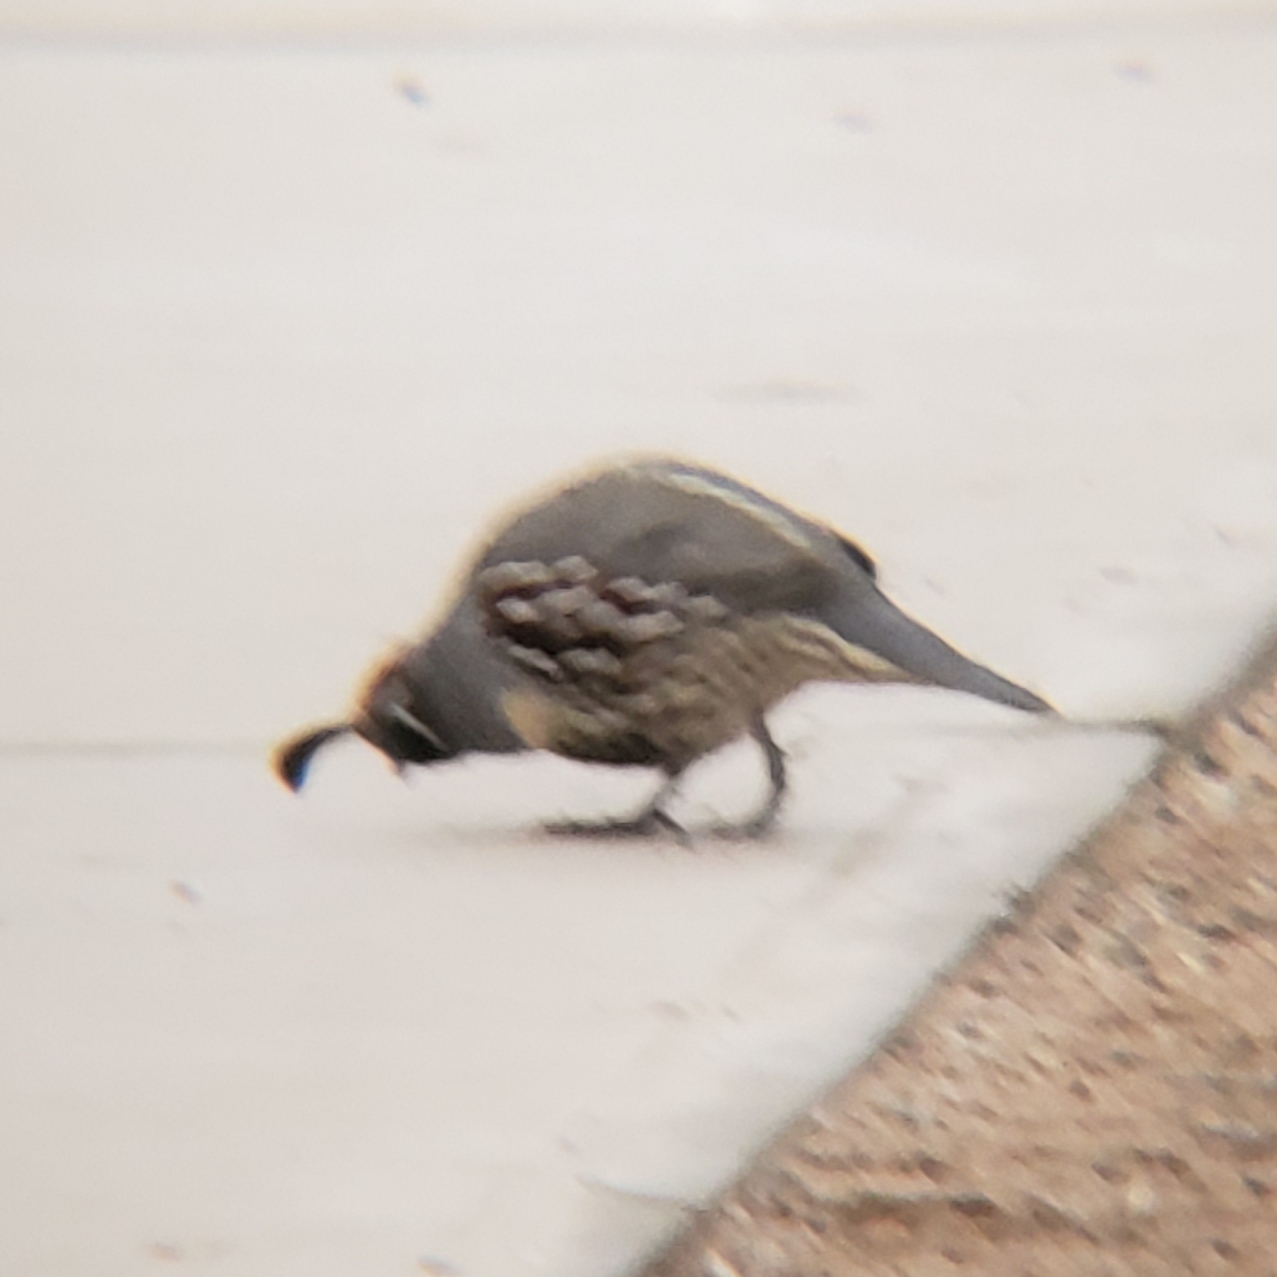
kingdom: Animalia
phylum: Chordata
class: Aves
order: Galliformes
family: Odontophoridae
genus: Callipepla
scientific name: Callipepla gambelii
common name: Gambel's quail
